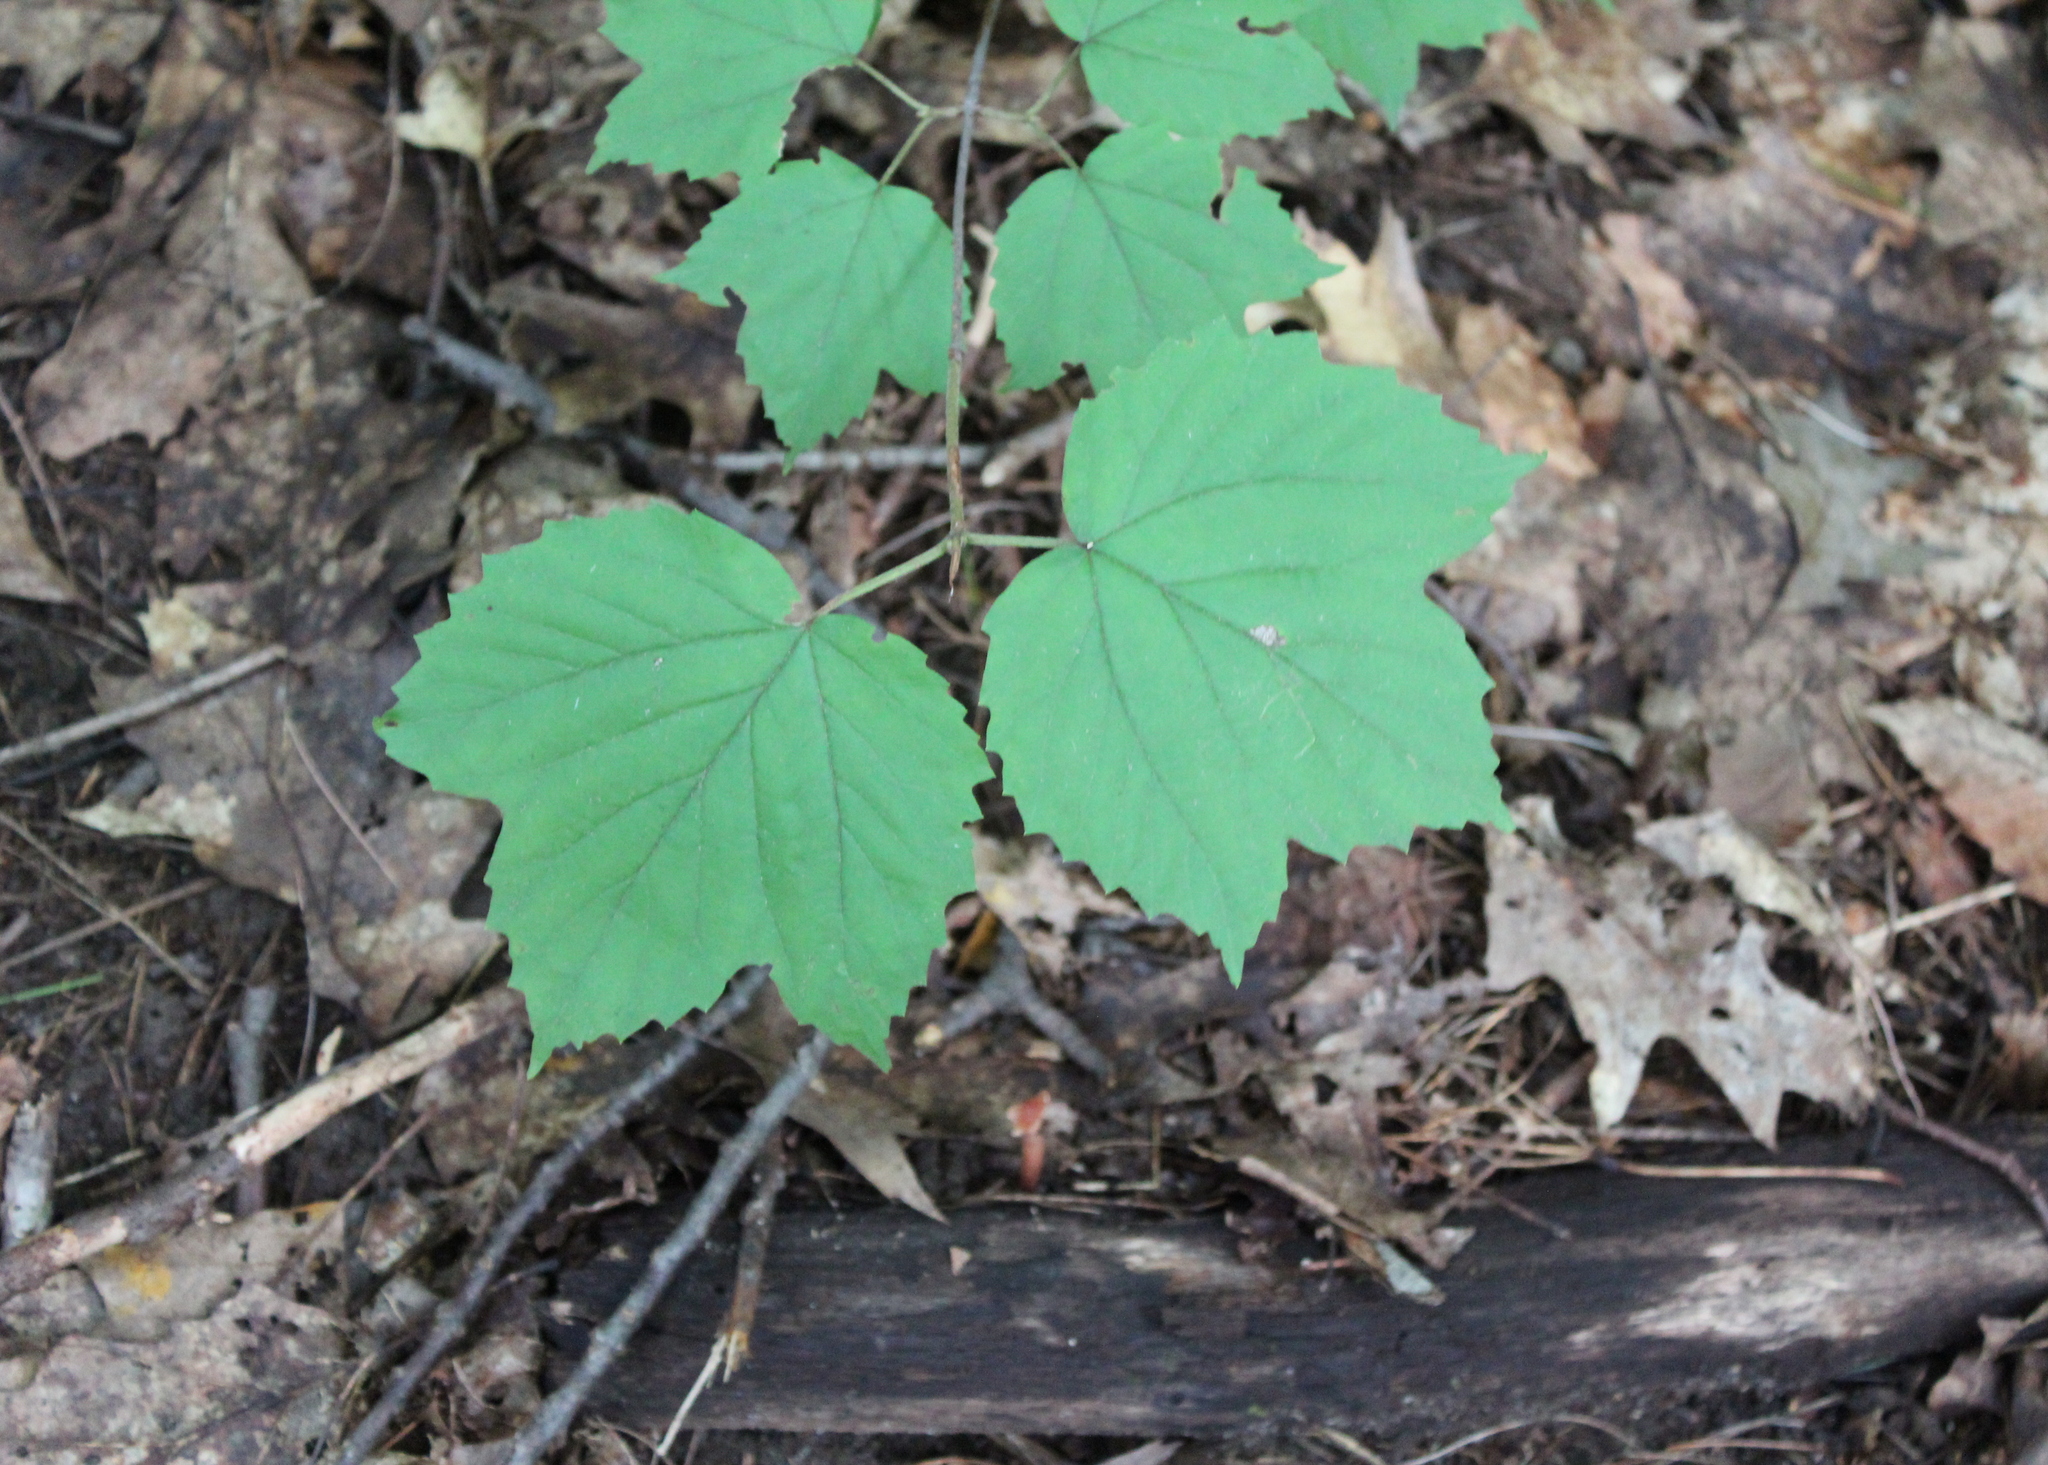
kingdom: Plantae
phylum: Tracheophyta
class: Magnoliopsida
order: Dipsacales
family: Viburnaceae
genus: Viburnum
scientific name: Viburnum acerifolium
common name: Dockmackie
